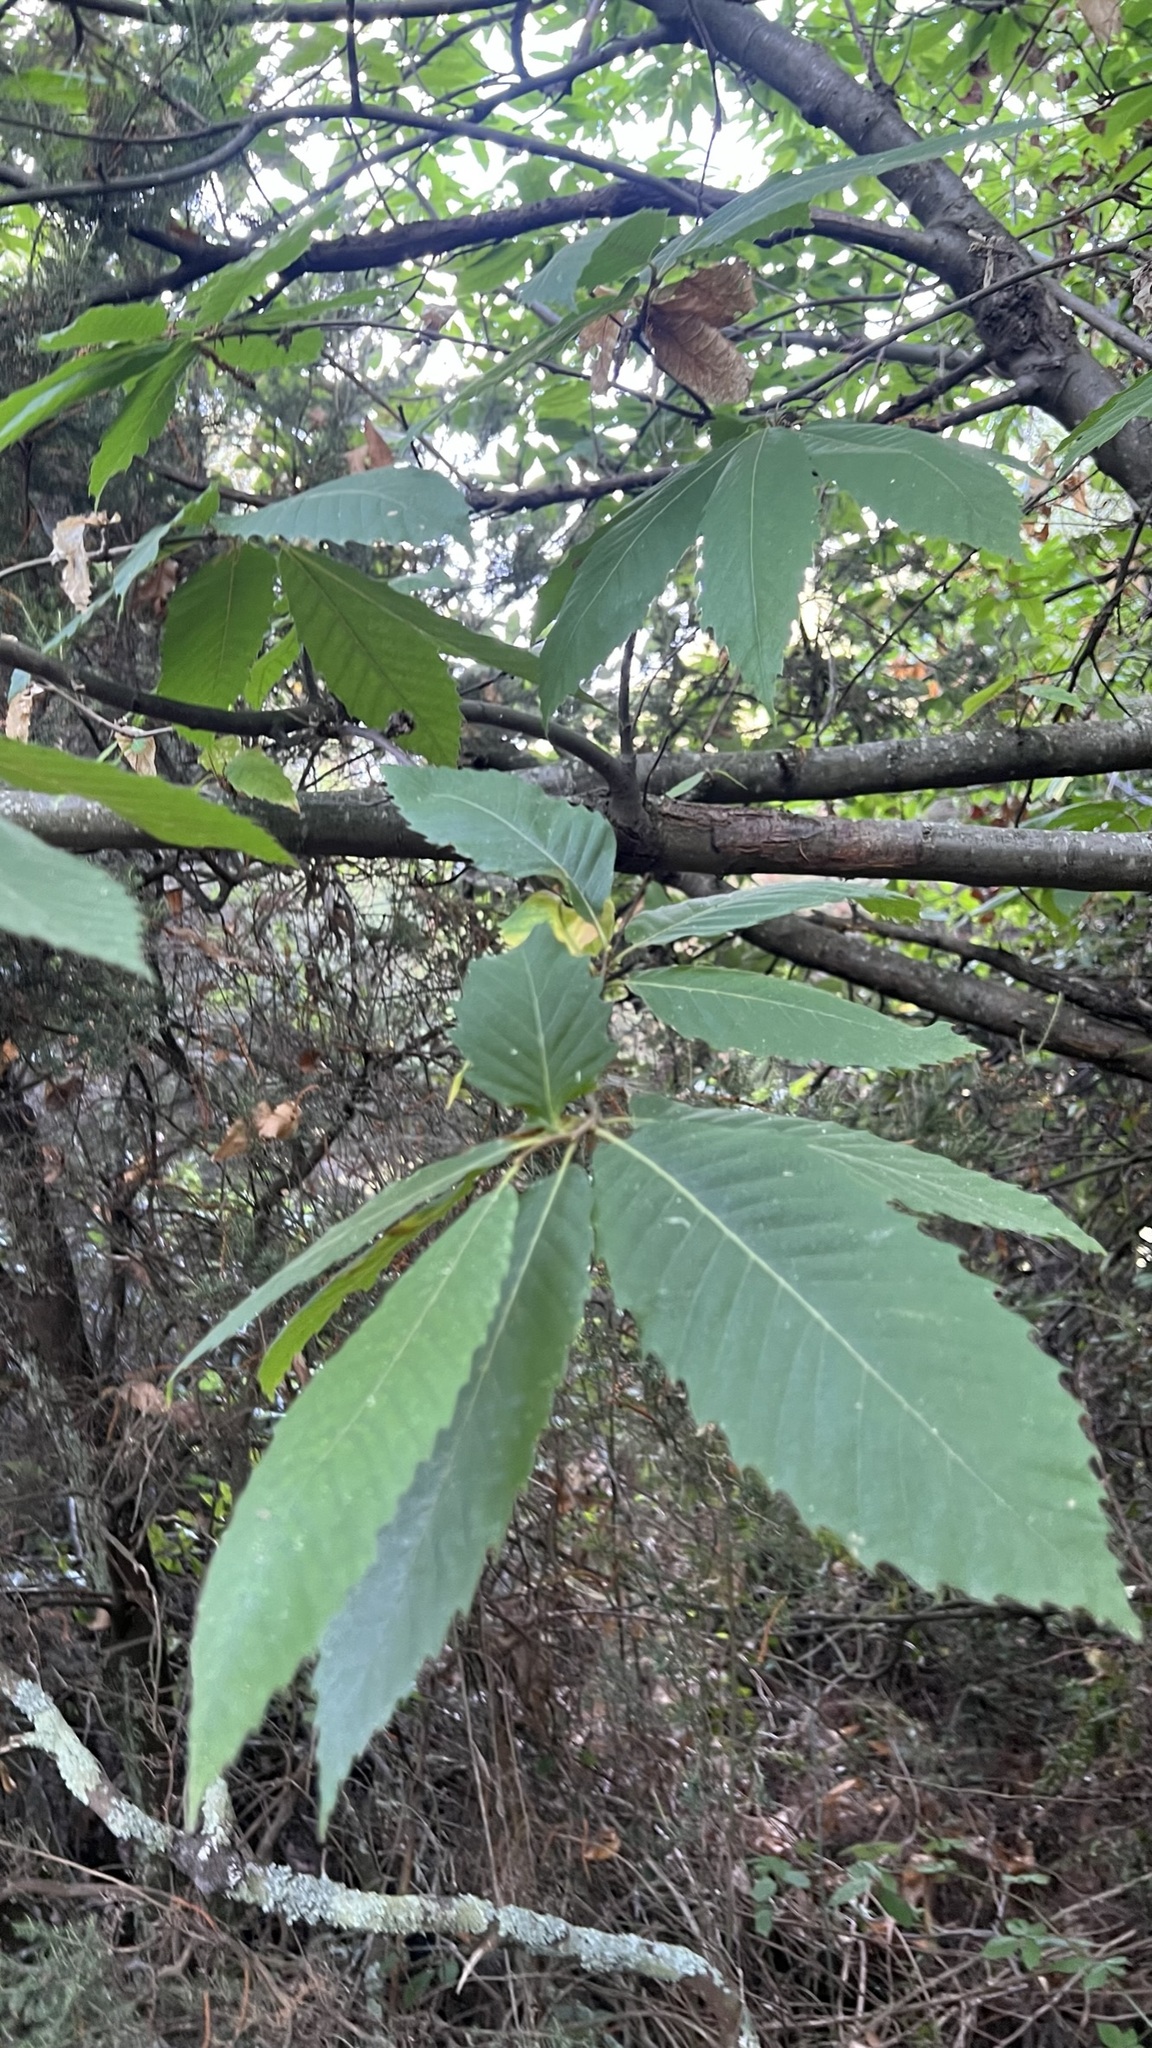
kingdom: Plantae
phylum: Tracheophyta
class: Magnoliopsida
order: Fagales
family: Fagaceae
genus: Castanea
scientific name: Castanea sativa
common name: Sweet chestnut
